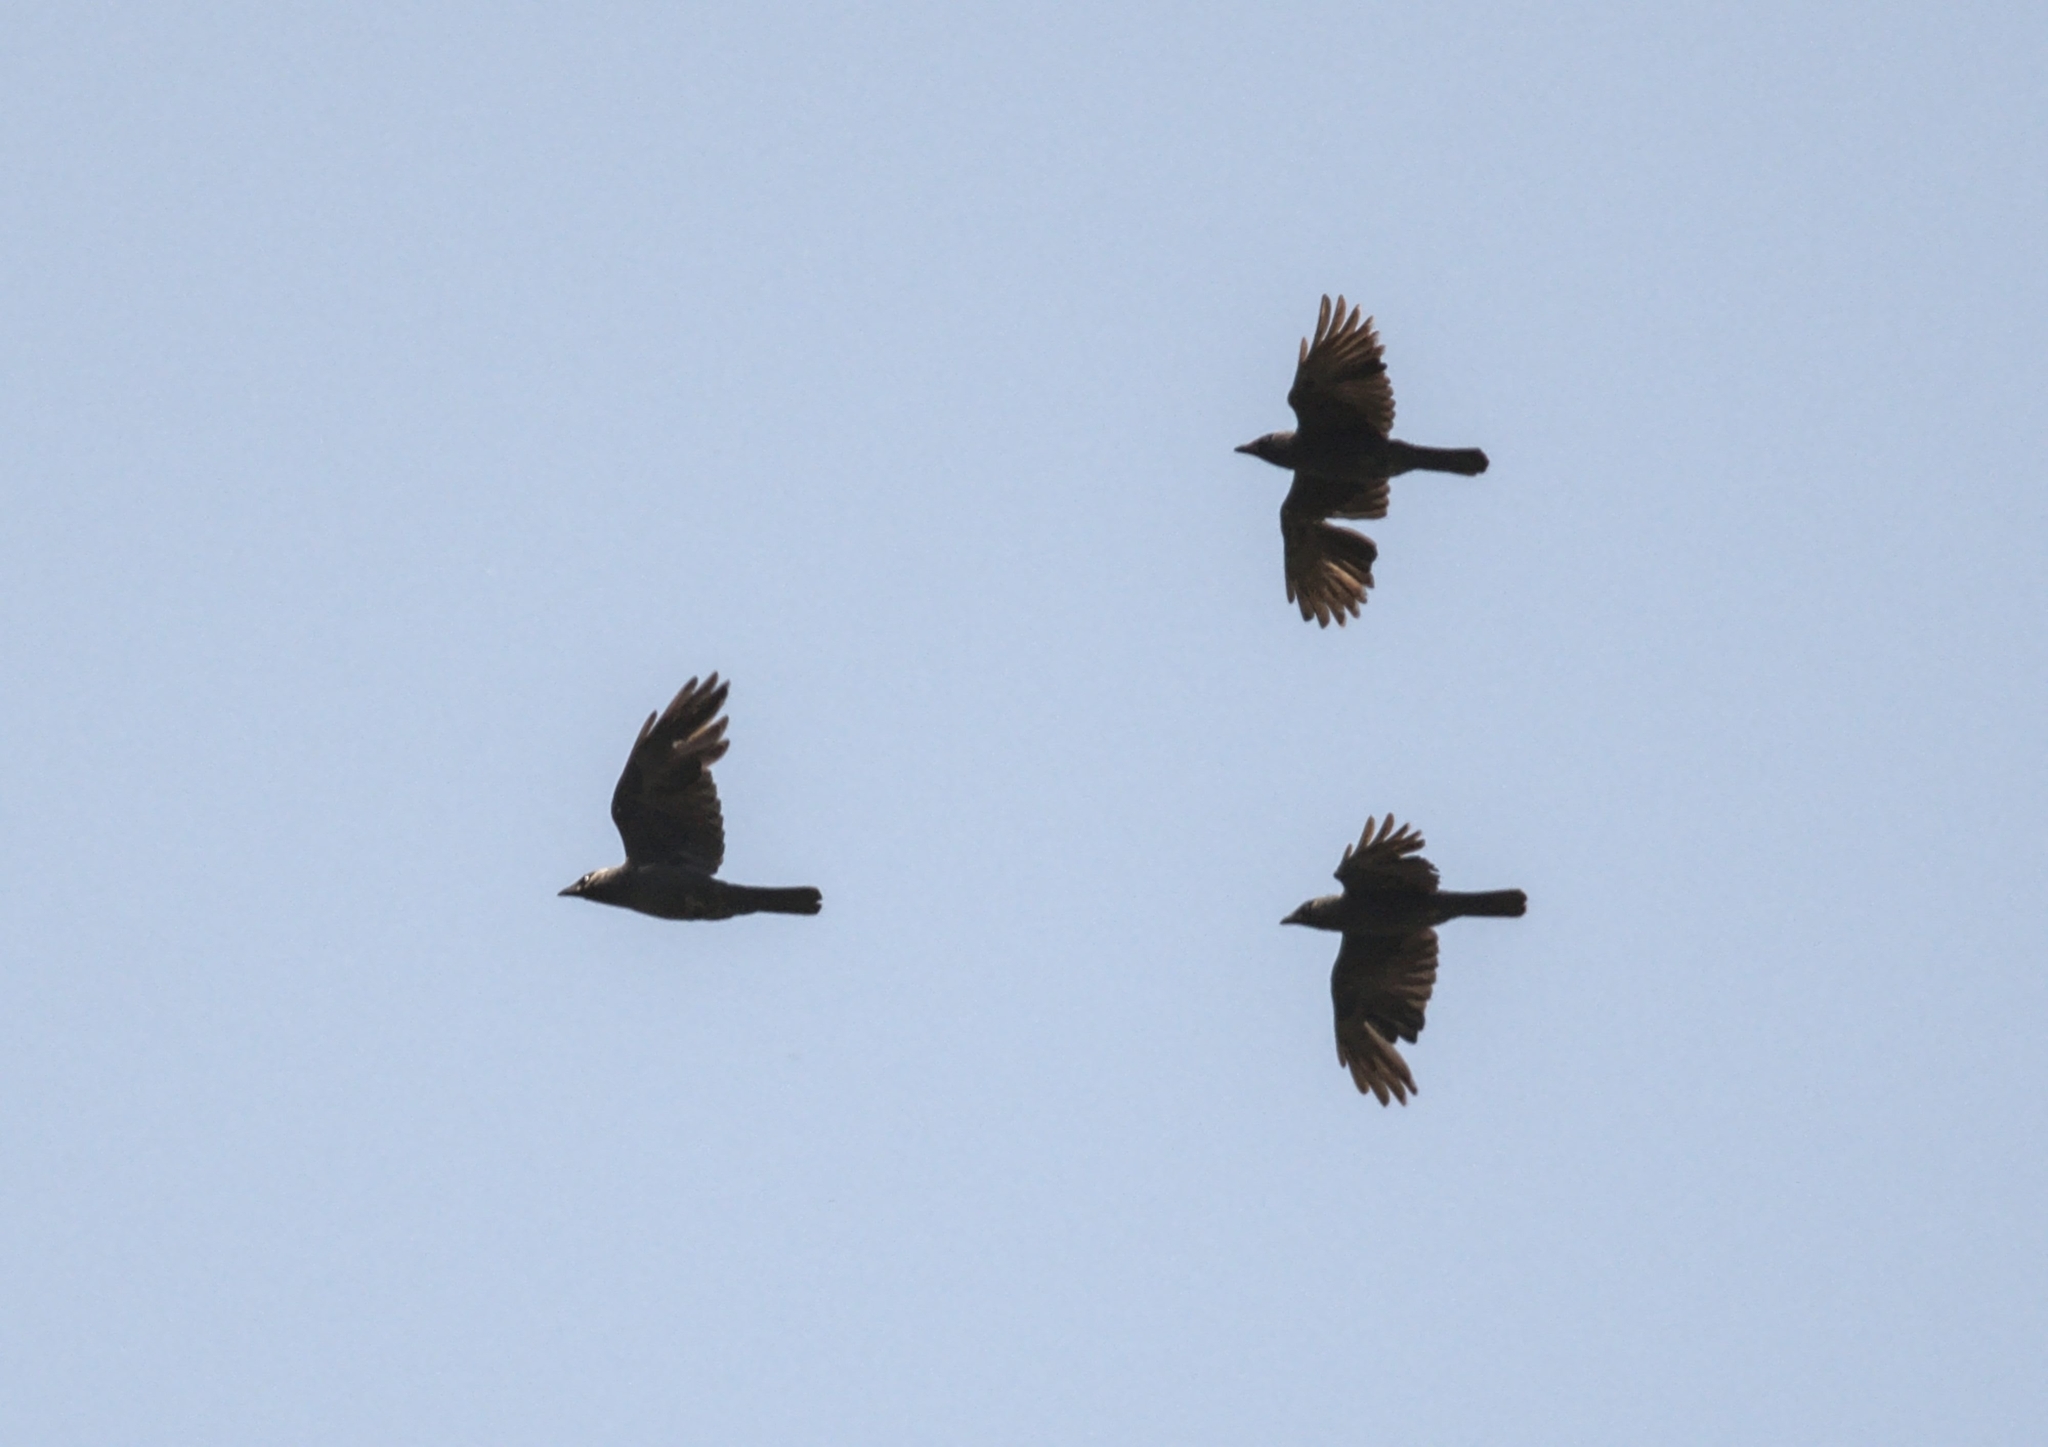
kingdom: Animalia
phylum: Chordata
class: Aves
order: Passeriformes
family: Corvidae
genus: Coloeus
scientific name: Coloeus monedula
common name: Western jackdaw
